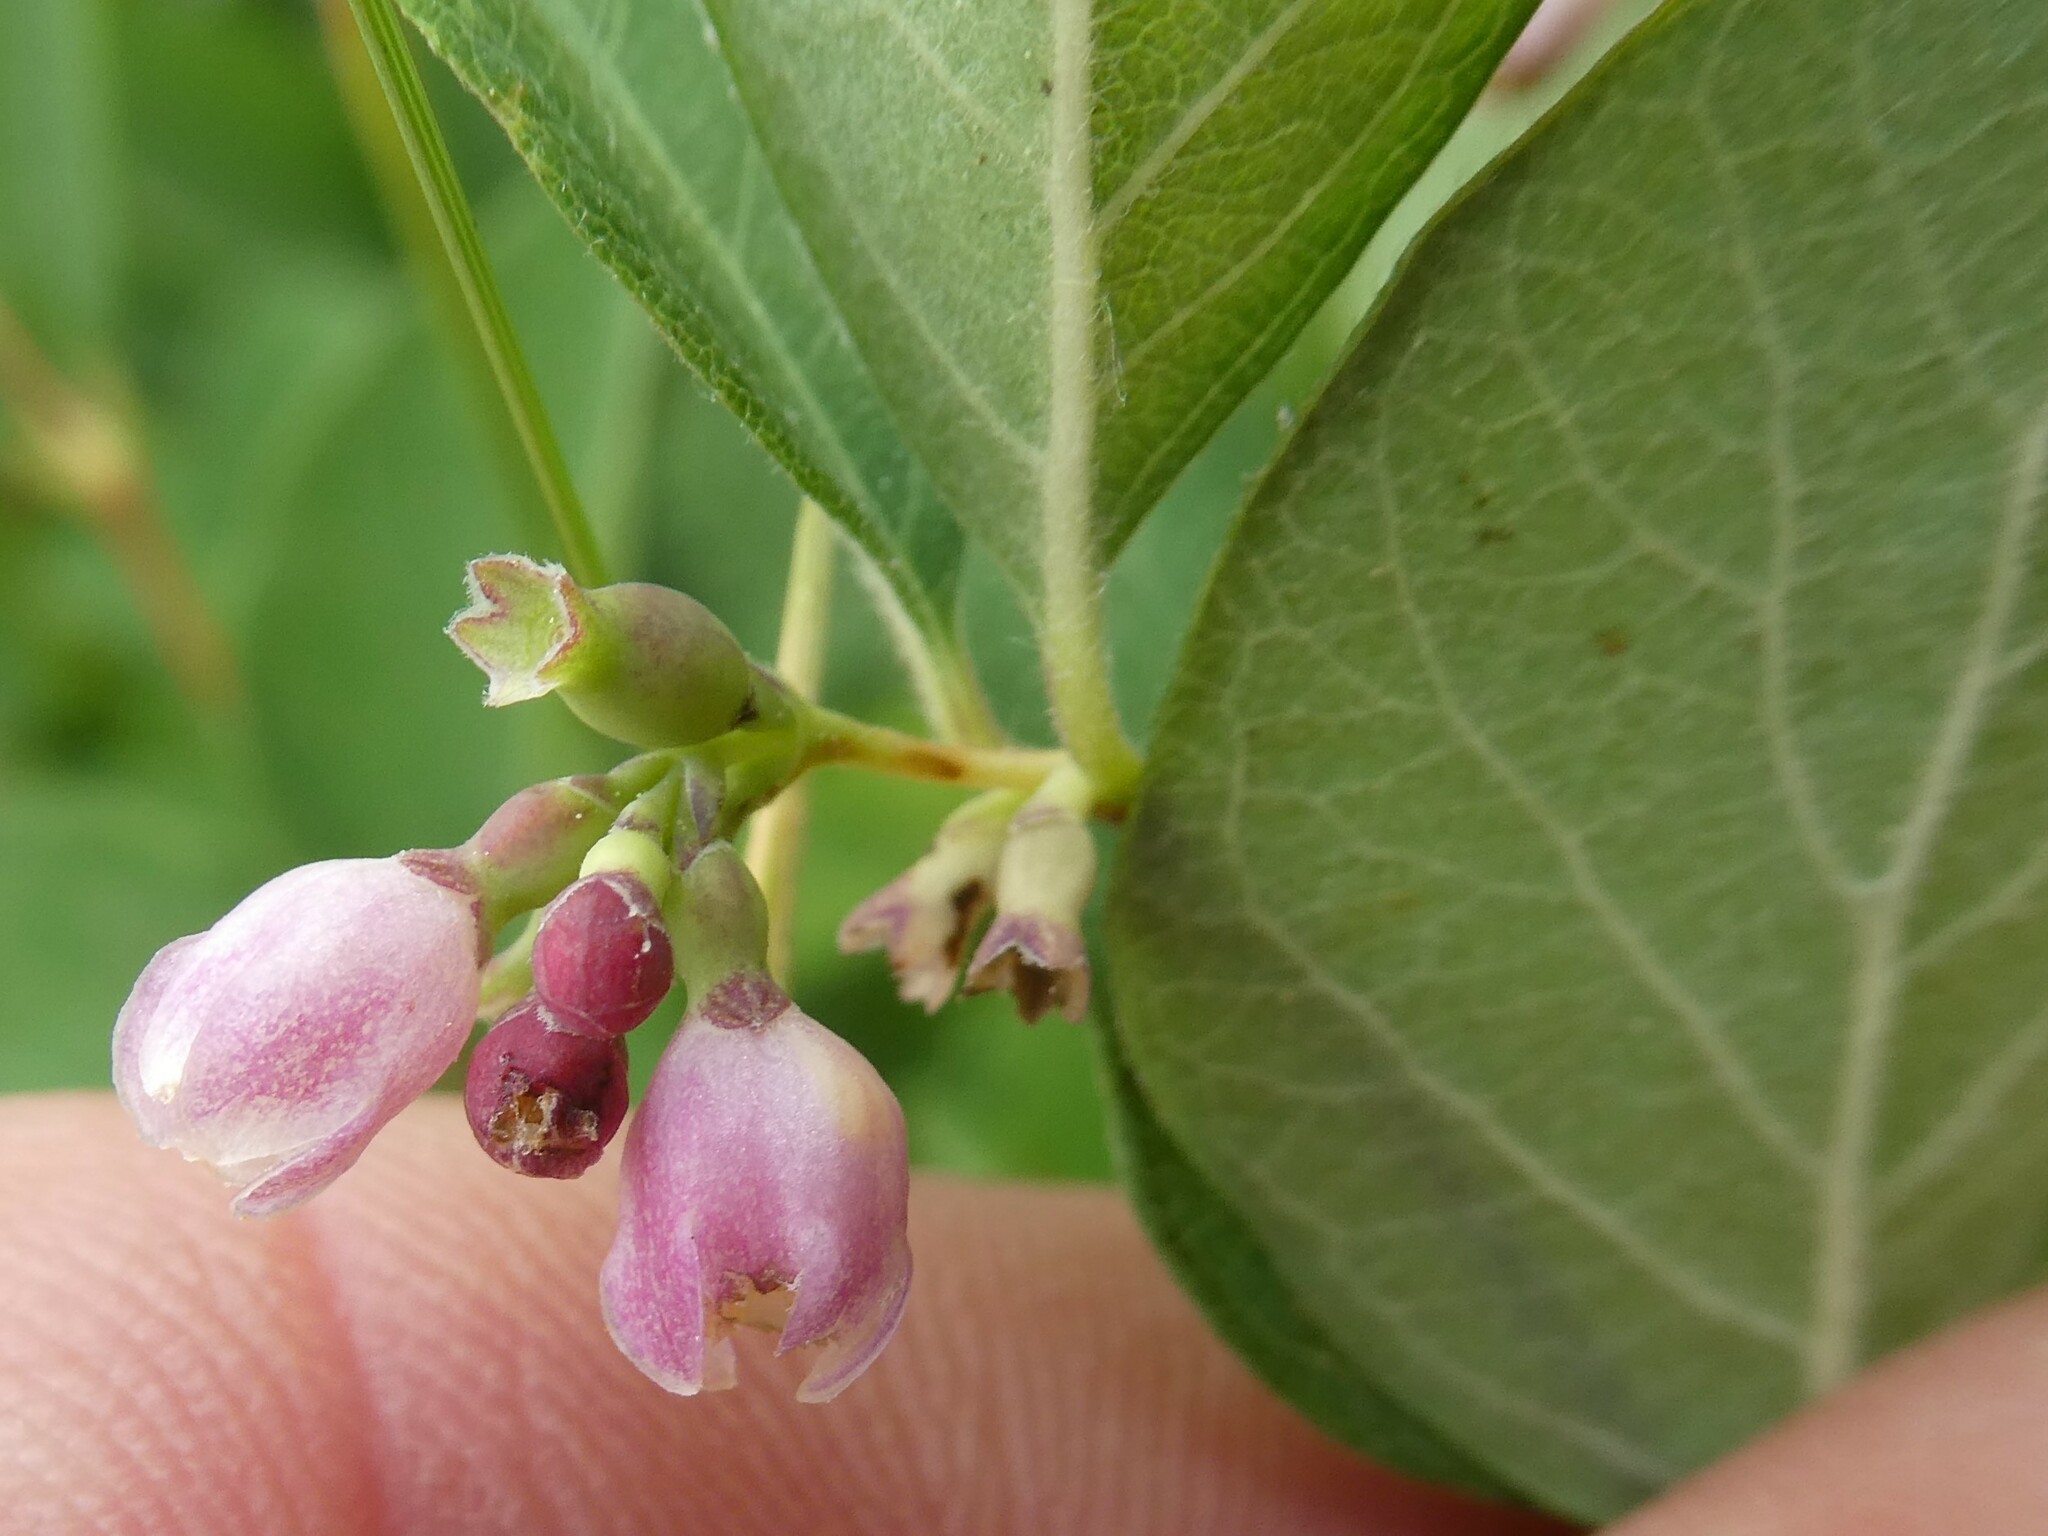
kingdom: Plantae
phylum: Tracheophyta
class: Magnoliopsida
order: Dipsacales
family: Caprifoliaceae
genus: Symphoricarpos
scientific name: Symphoricarpos albus
